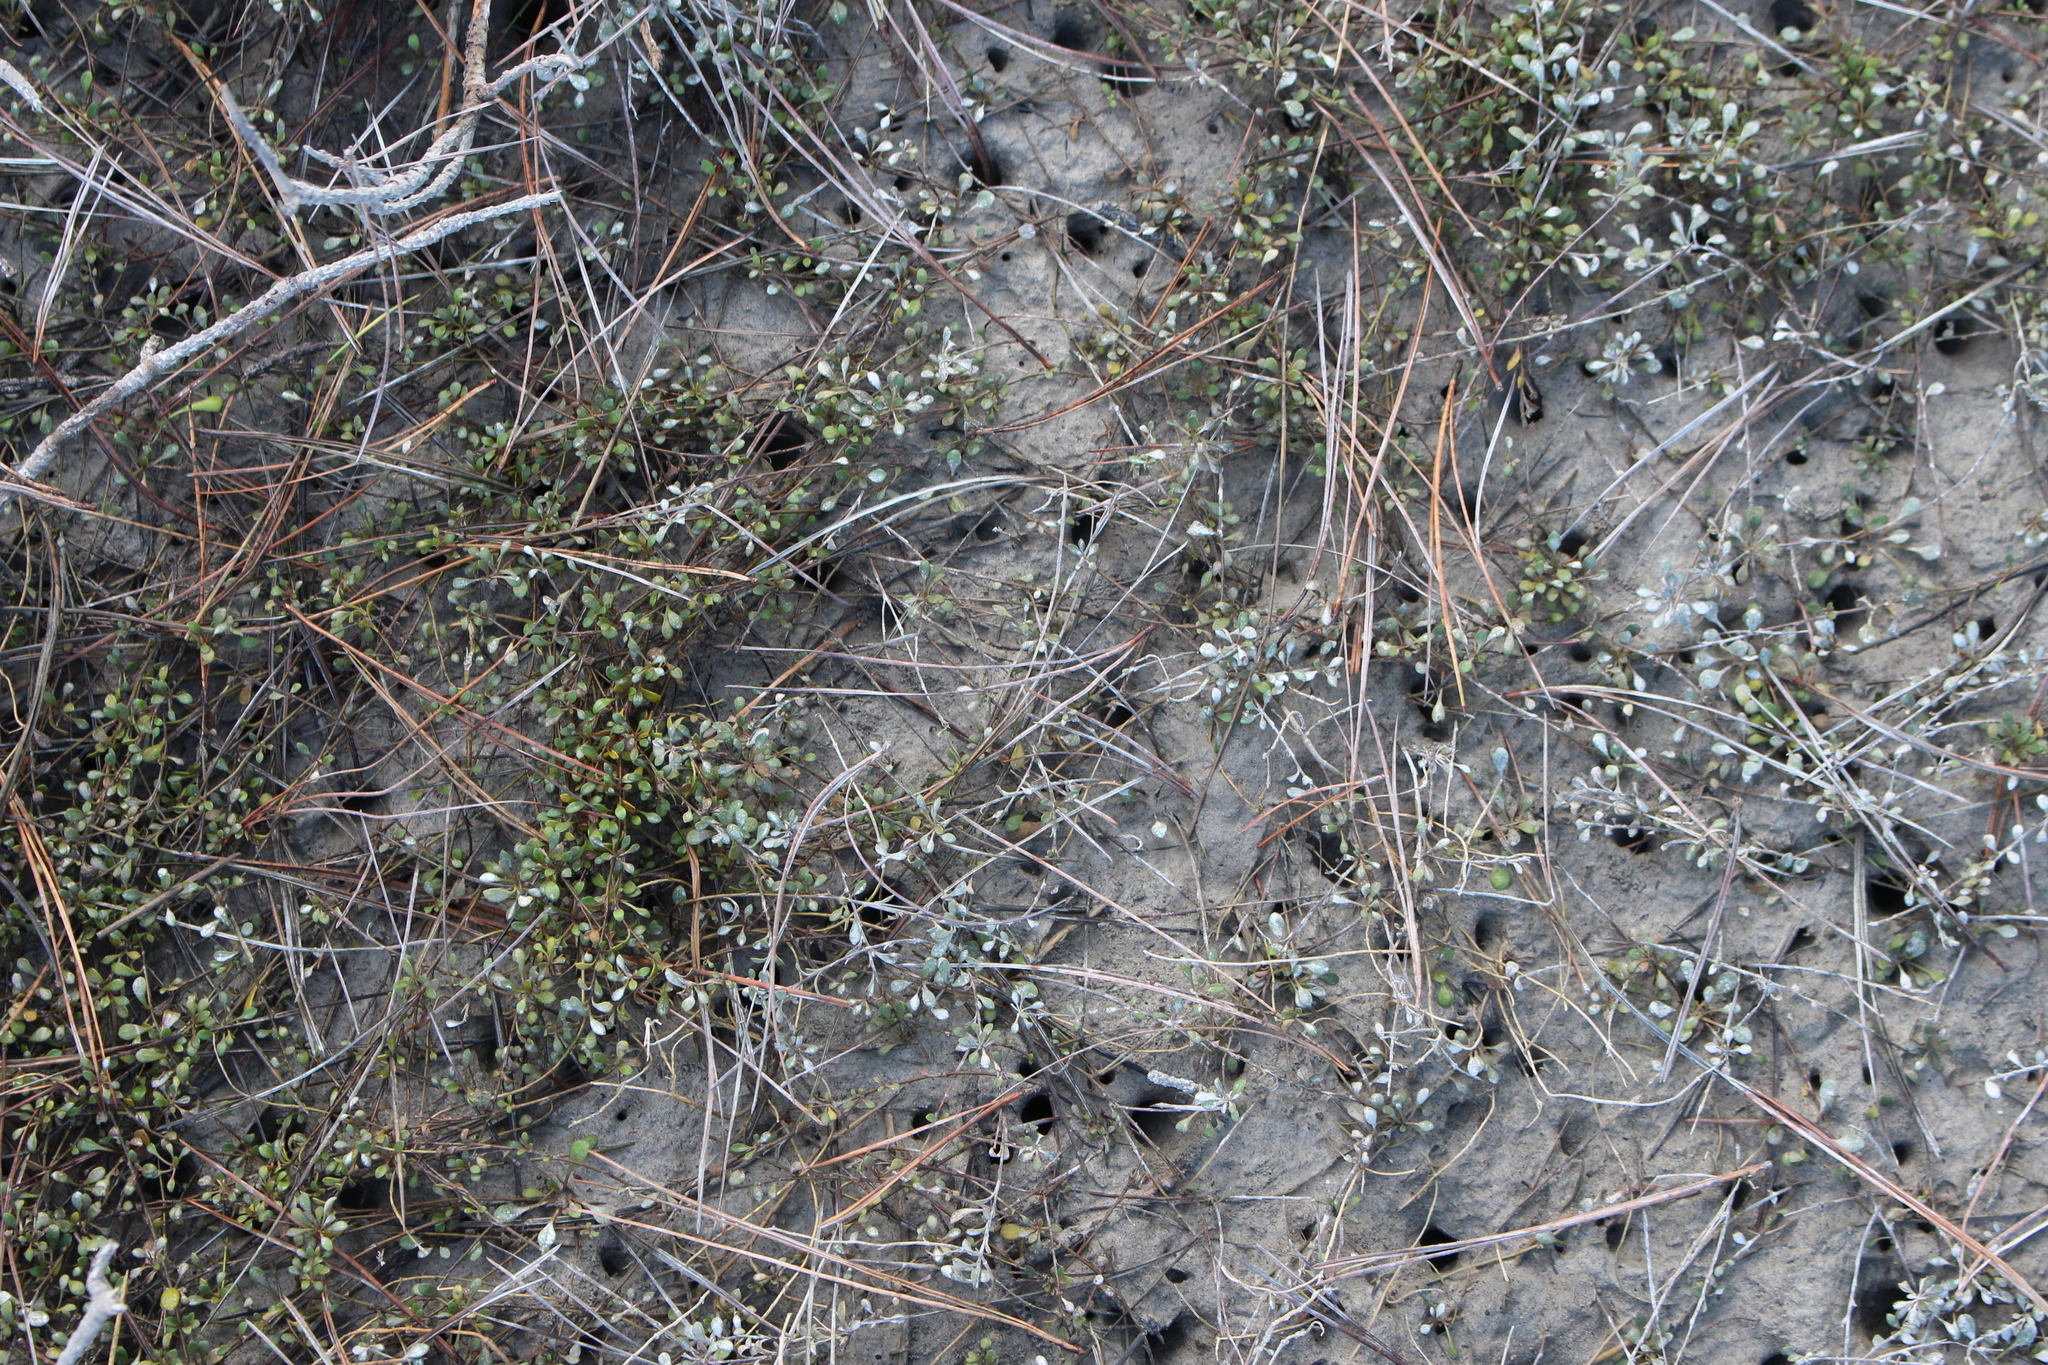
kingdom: Plantae
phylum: Tracheophyta
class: Magnoliopsida
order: Ericales
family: Primulaceae
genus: Samolus
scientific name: Samolus repens
